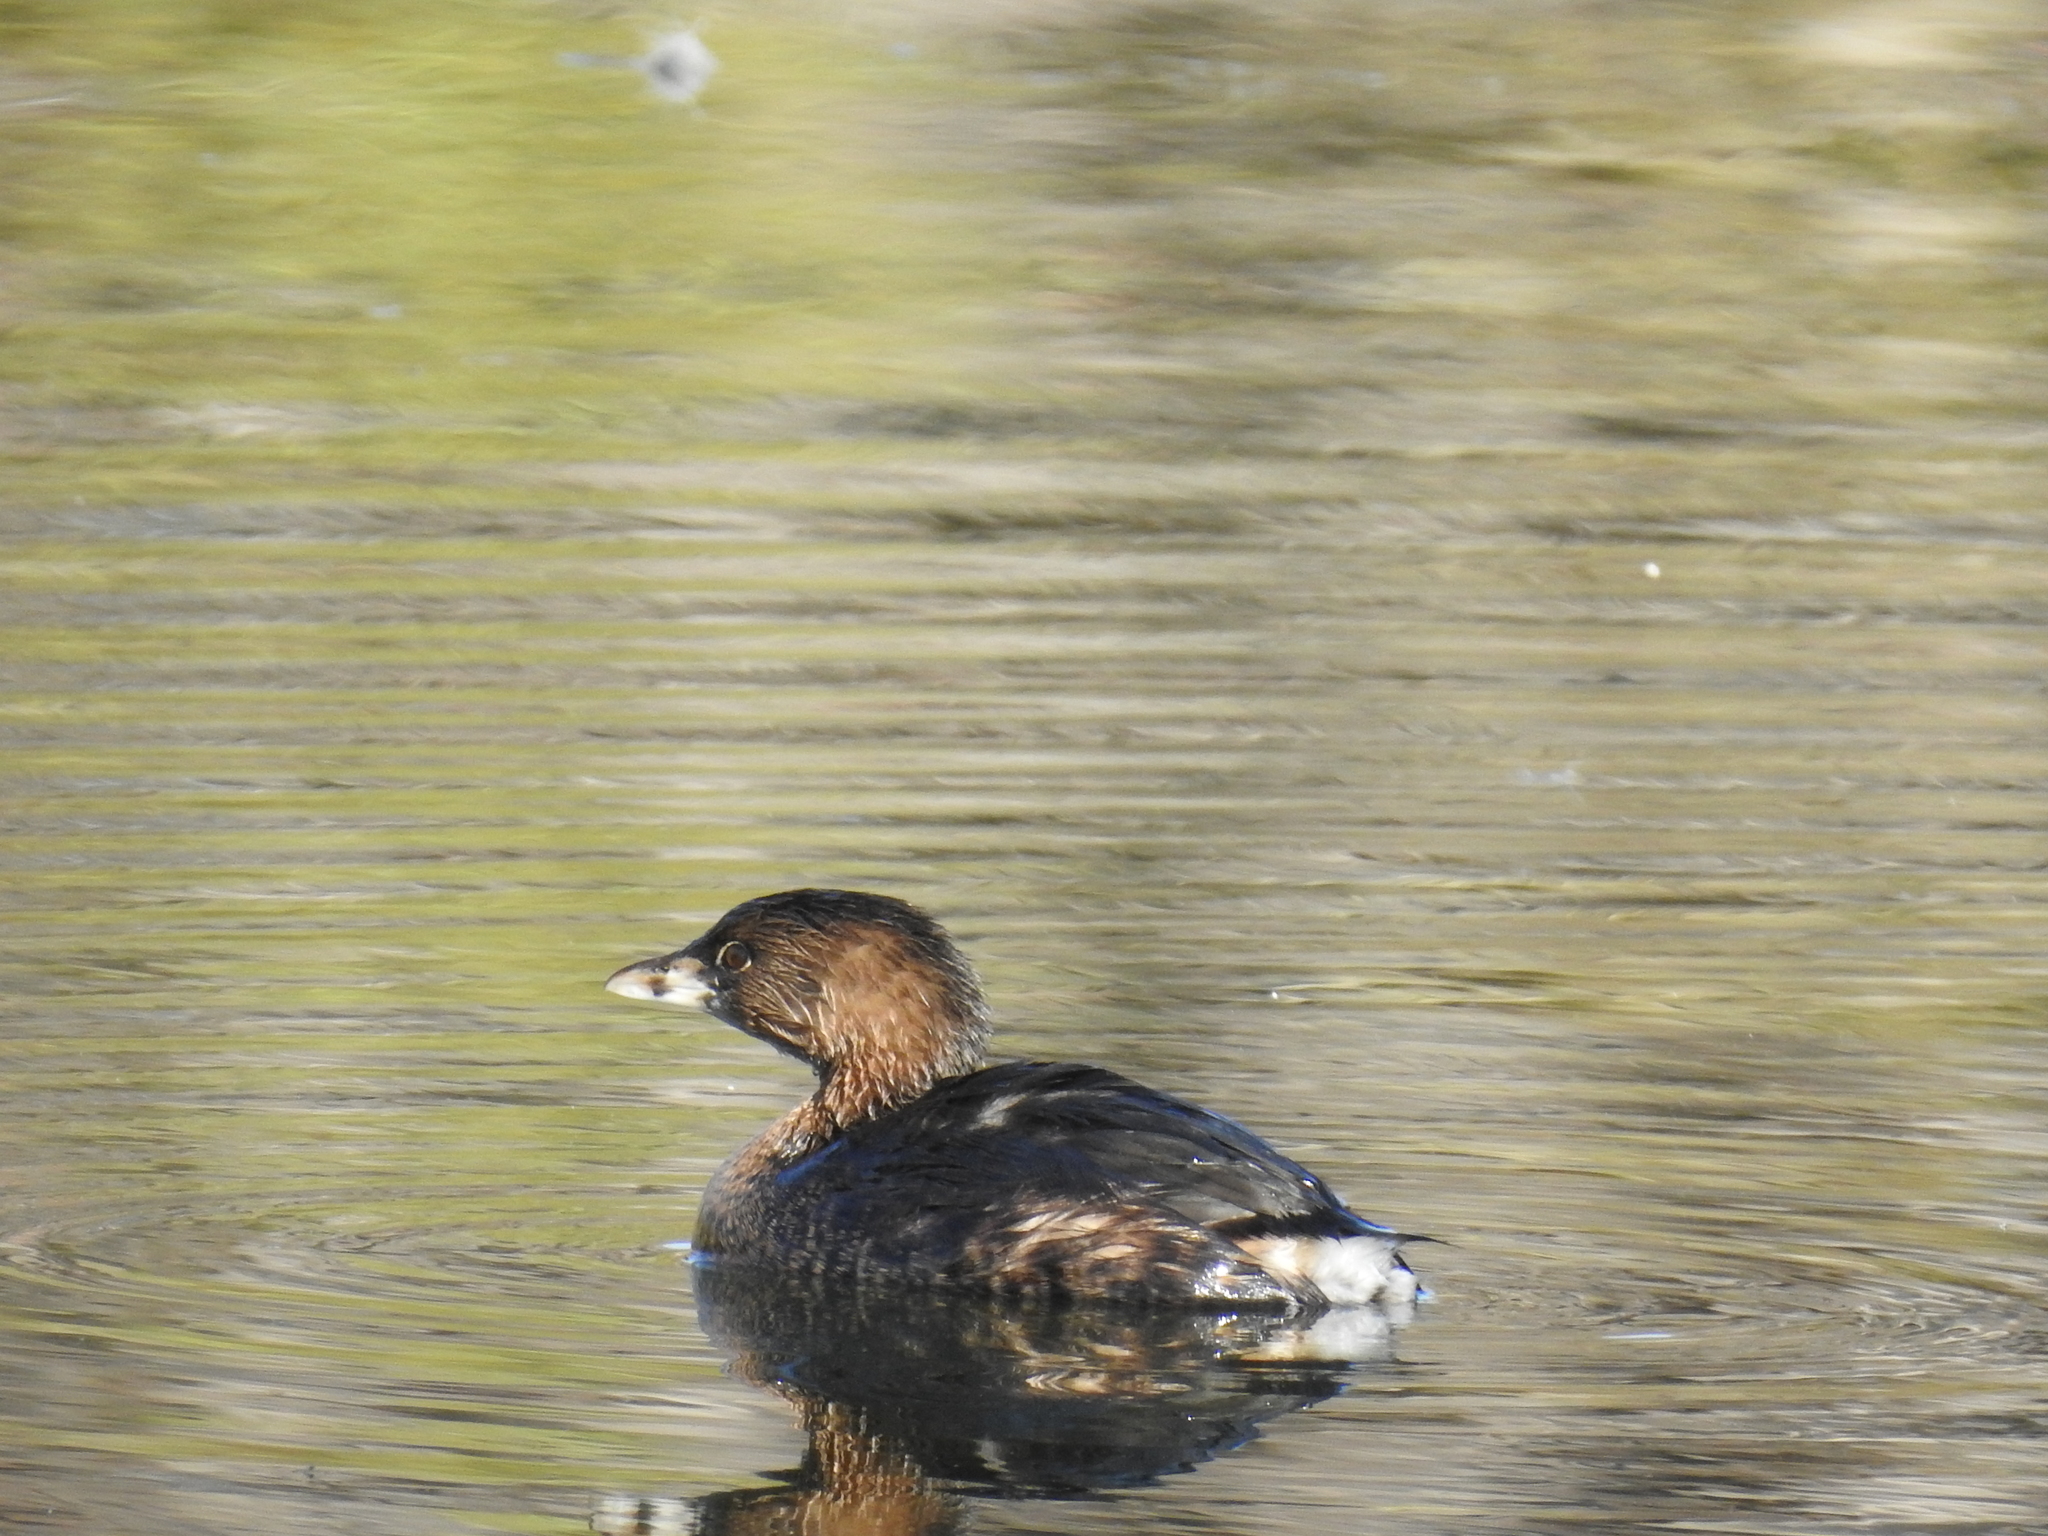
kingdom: Animalia
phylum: Chordata
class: Aves
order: Podicipediformes
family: Podicipedidae
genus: Podilymbus
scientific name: Podilymbus podiceps
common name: Pied-billed grebe
